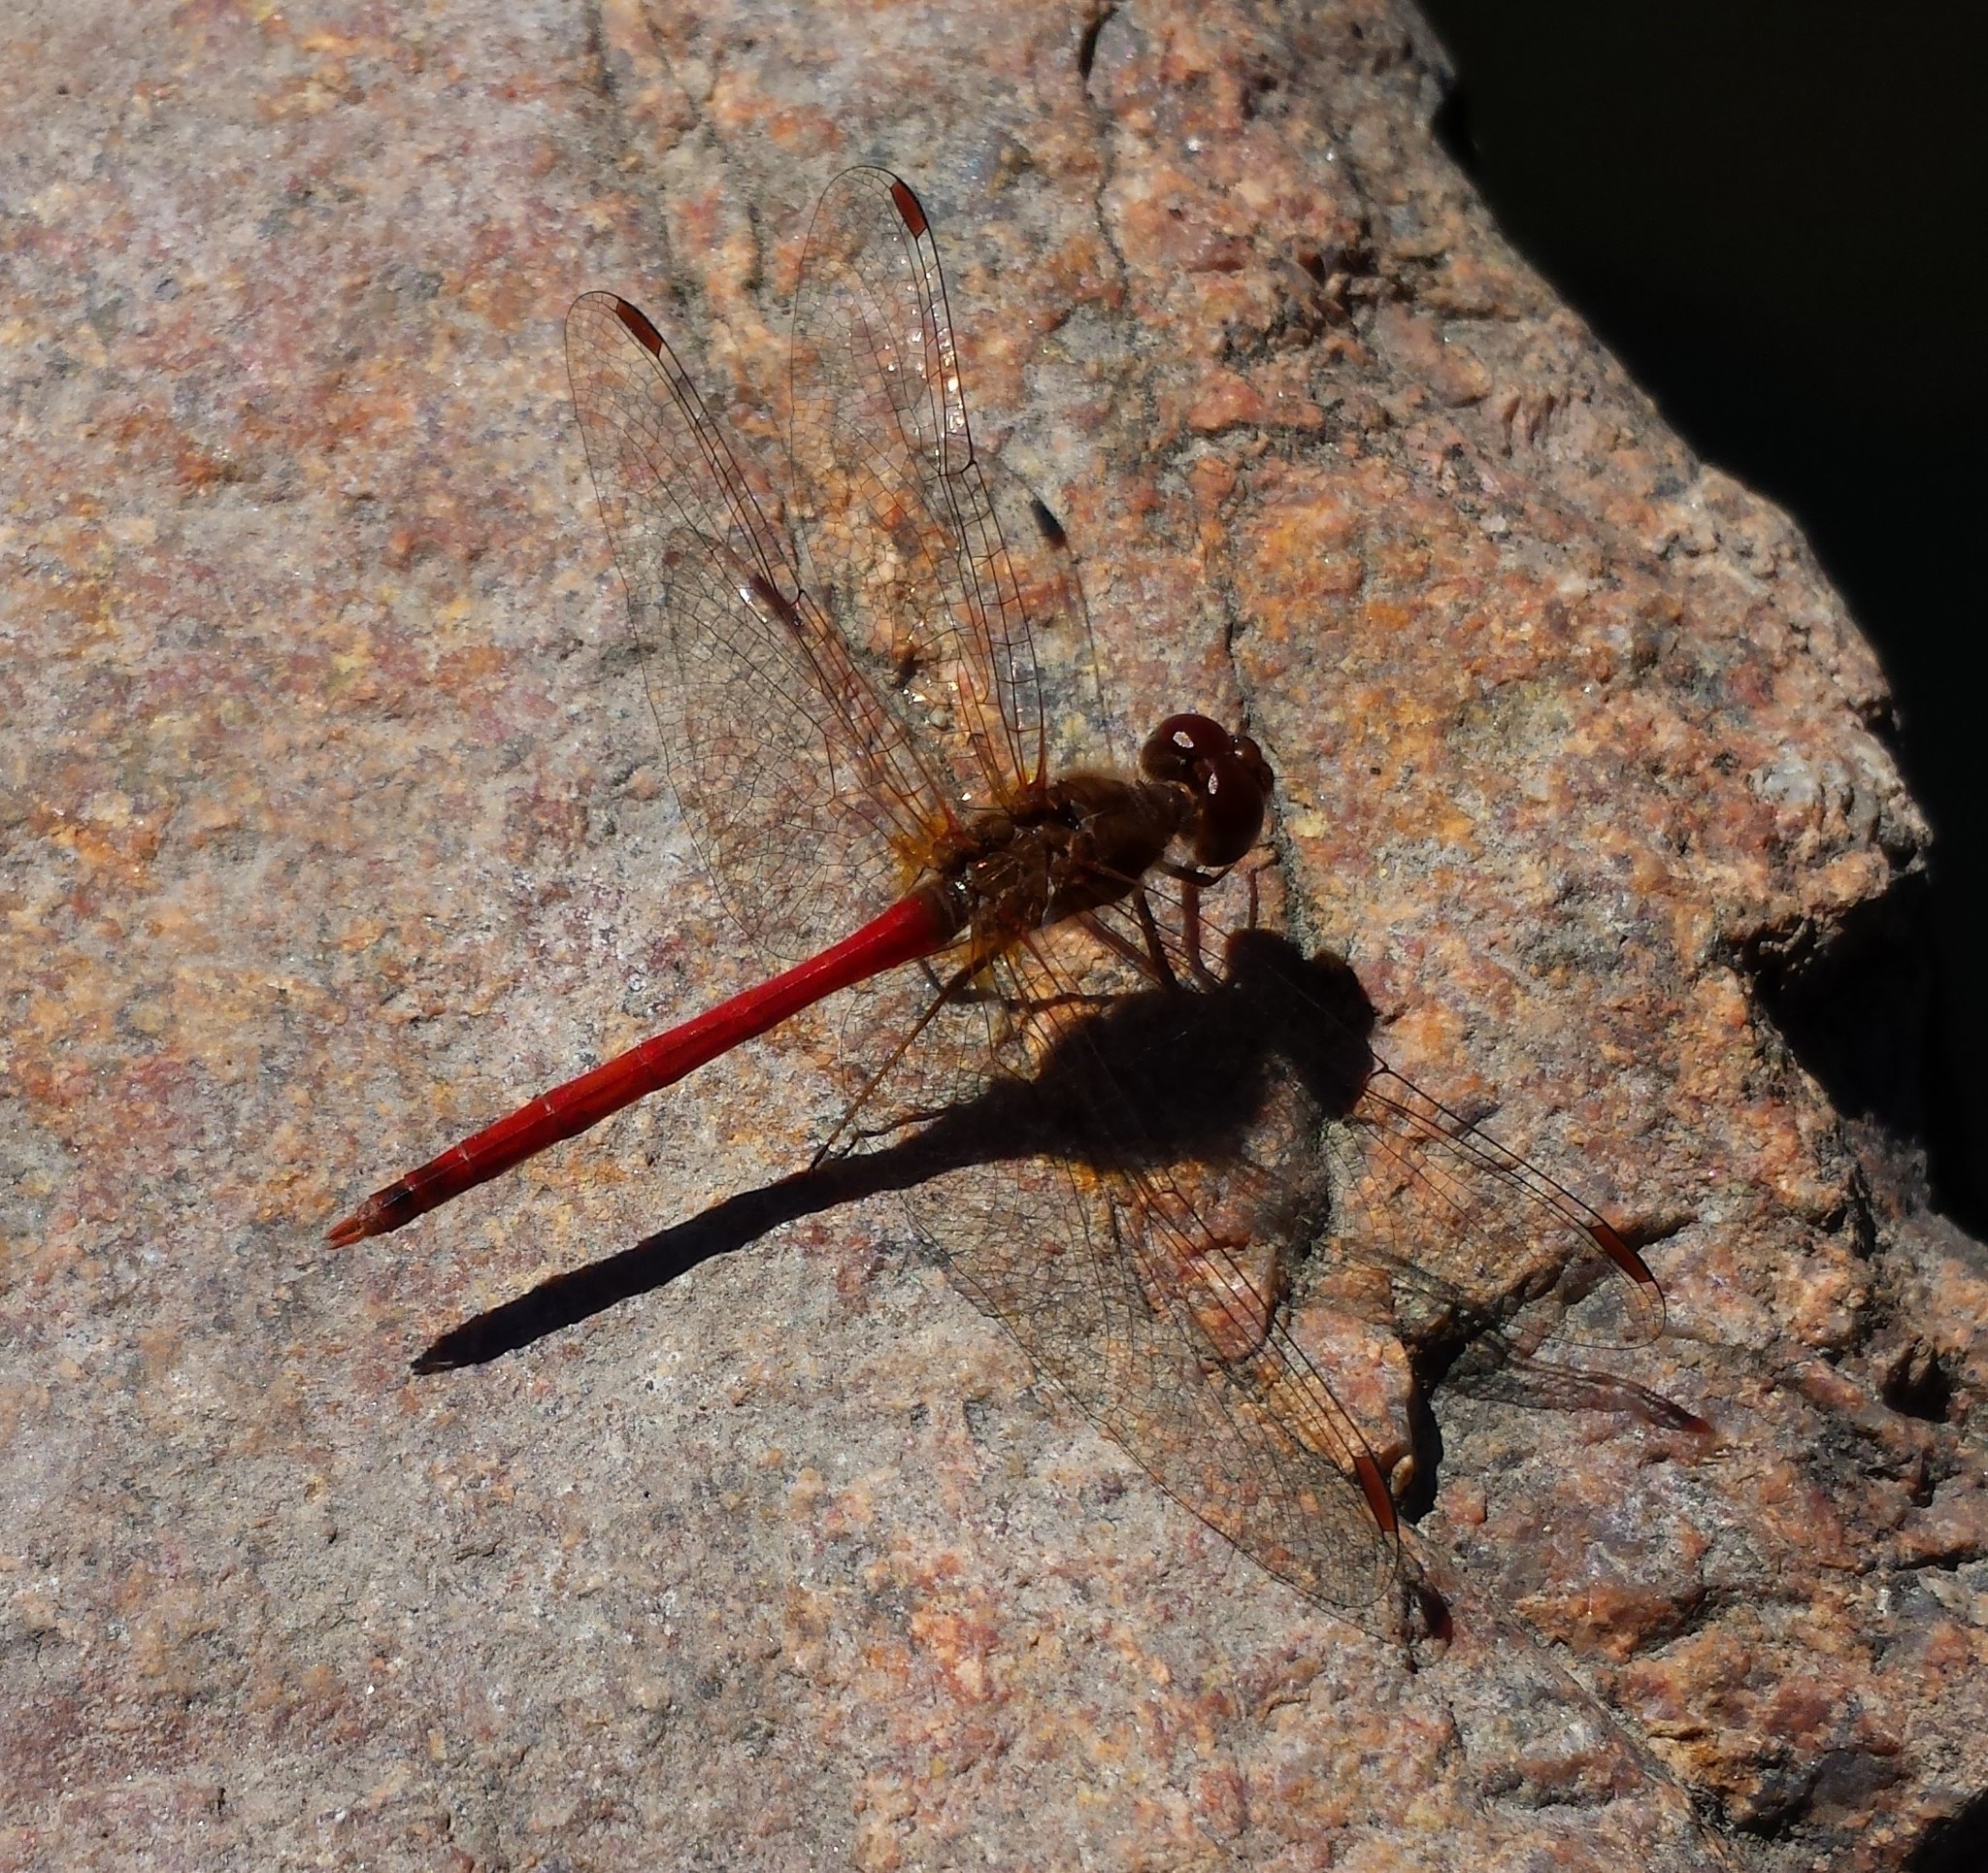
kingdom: Animalia
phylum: Arthropoda
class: Insecta
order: Odonata
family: Libellulidae
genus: Sympetrum
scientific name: Sympetrum vicinum
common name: Autumn meadowhawk
